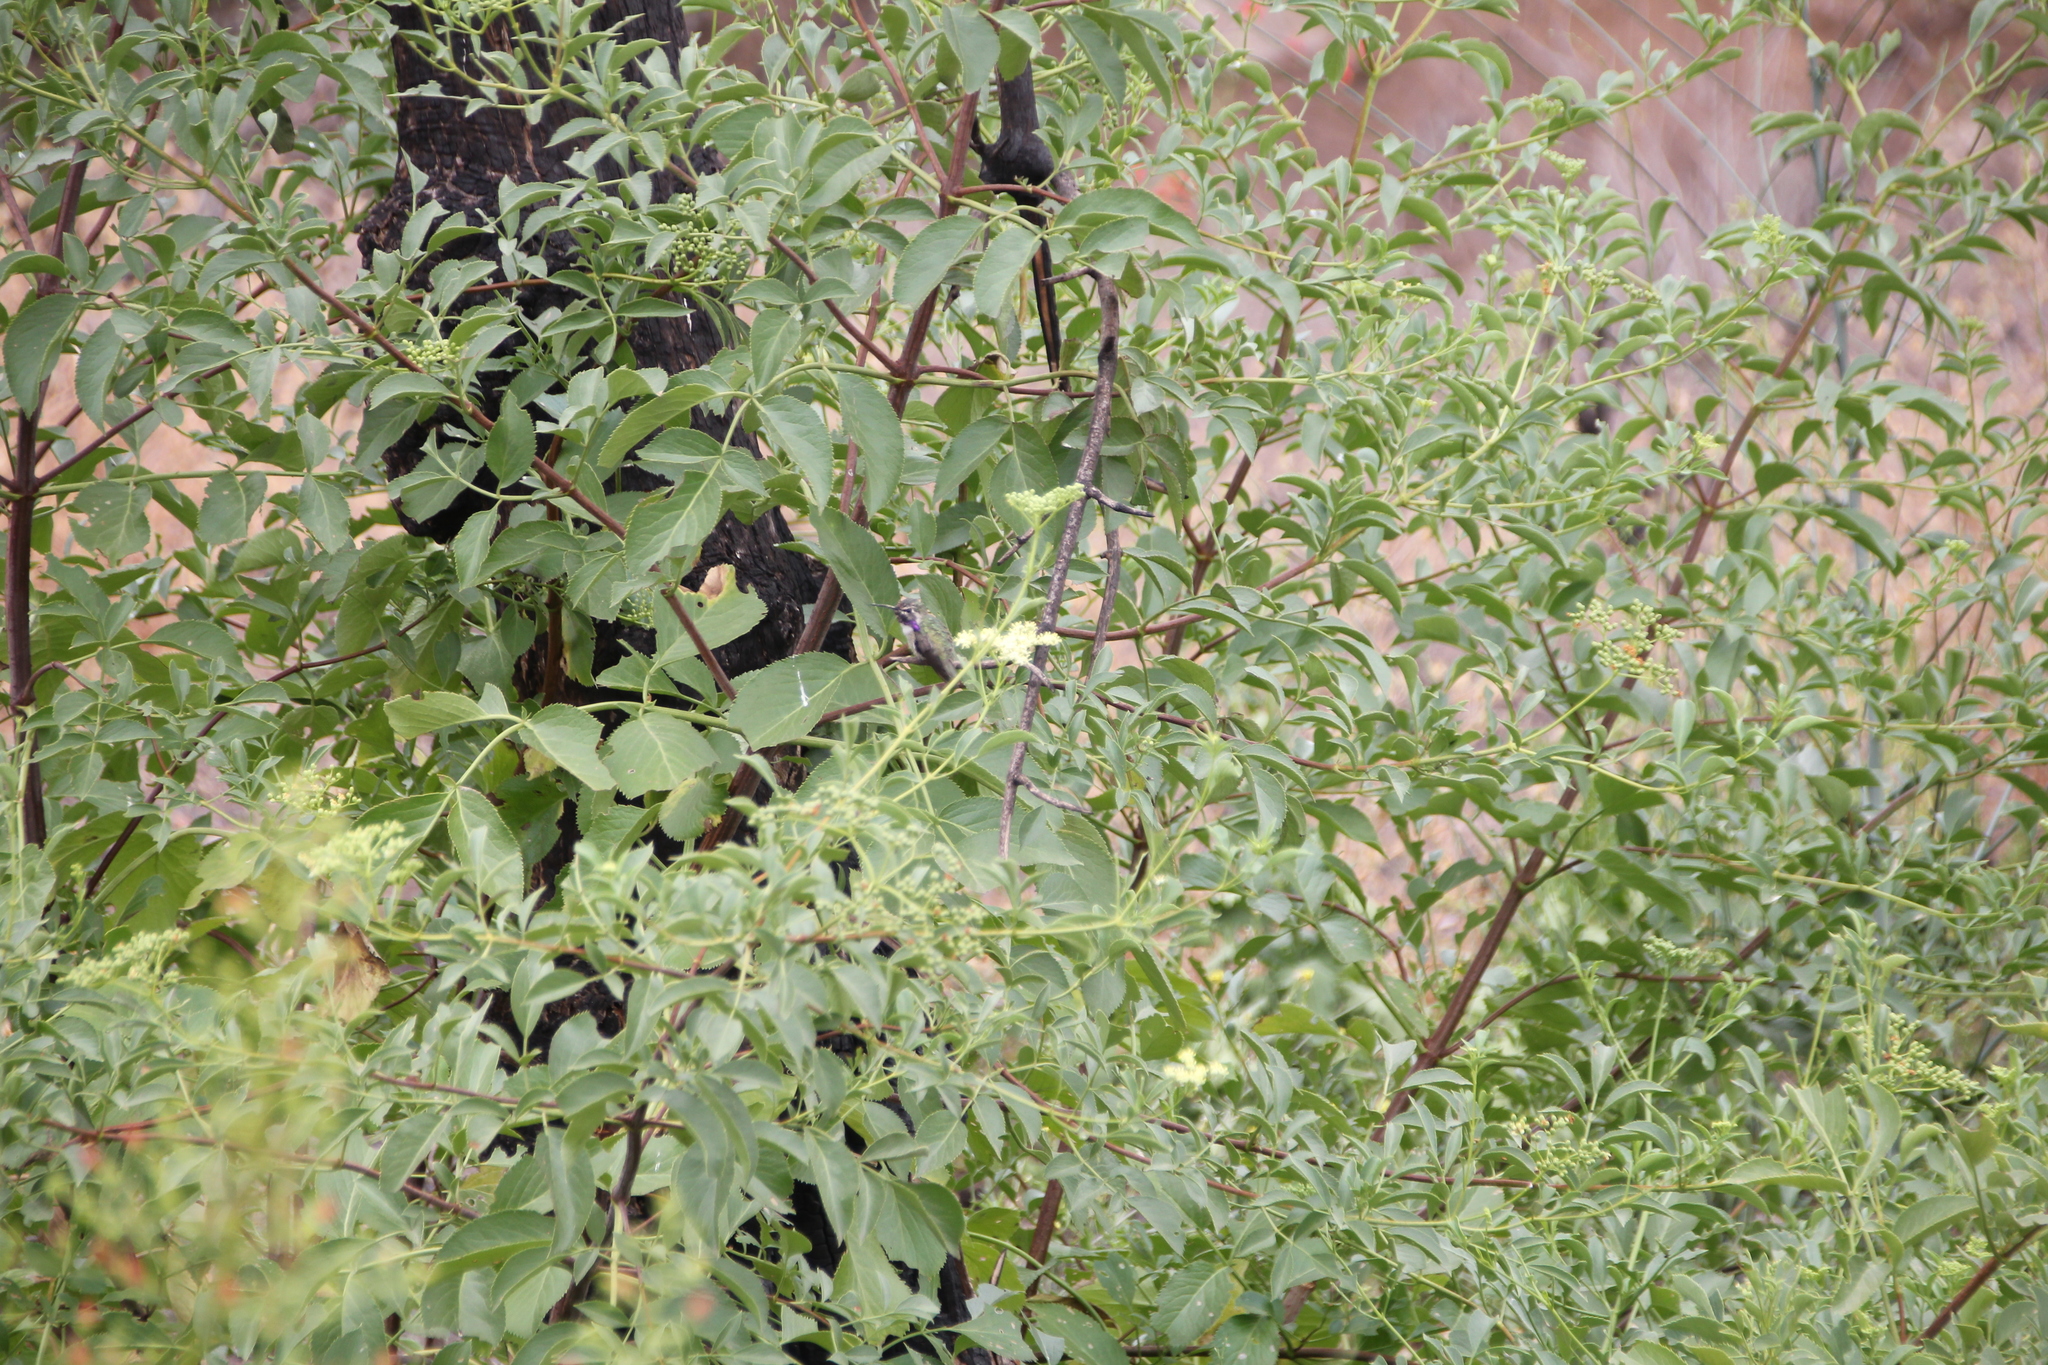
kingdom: Plantae
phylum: Tracheophyta
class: Magnoliopsida
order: Dipsacales
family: Viburnaceae
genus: Sambucus
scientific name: Sambucus cerulea
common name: Blue elder
